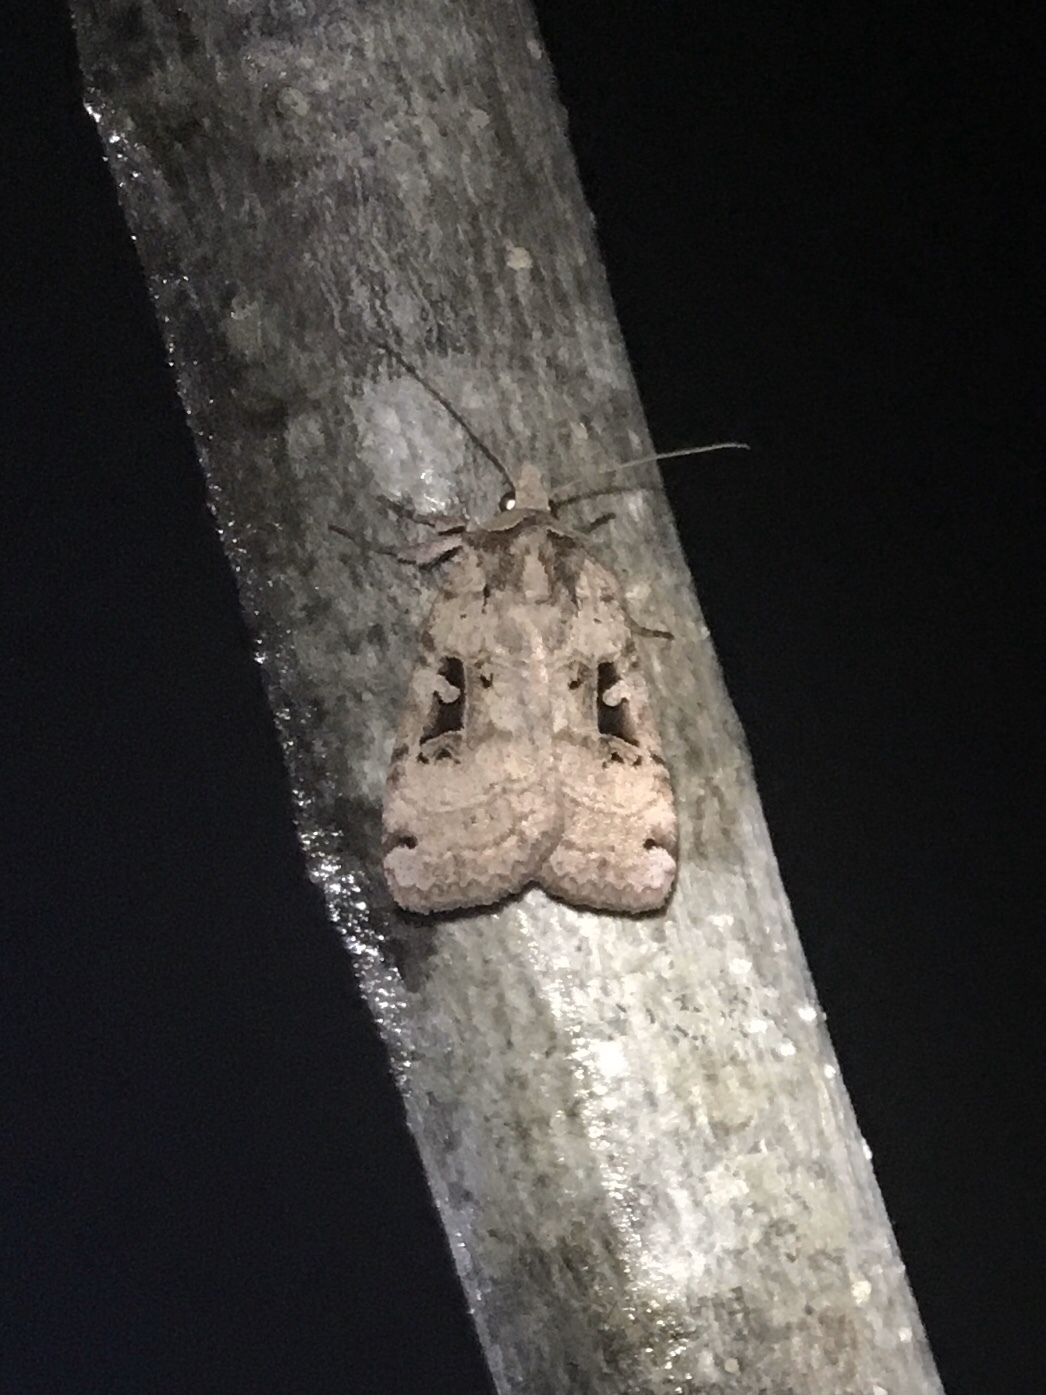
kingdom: Animalia
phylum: Arthropoda
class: Insecta
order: Lepidoptera
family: Noctuidae
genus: Xestia
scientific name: Xestia normaniana
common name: Norman's dart moth
